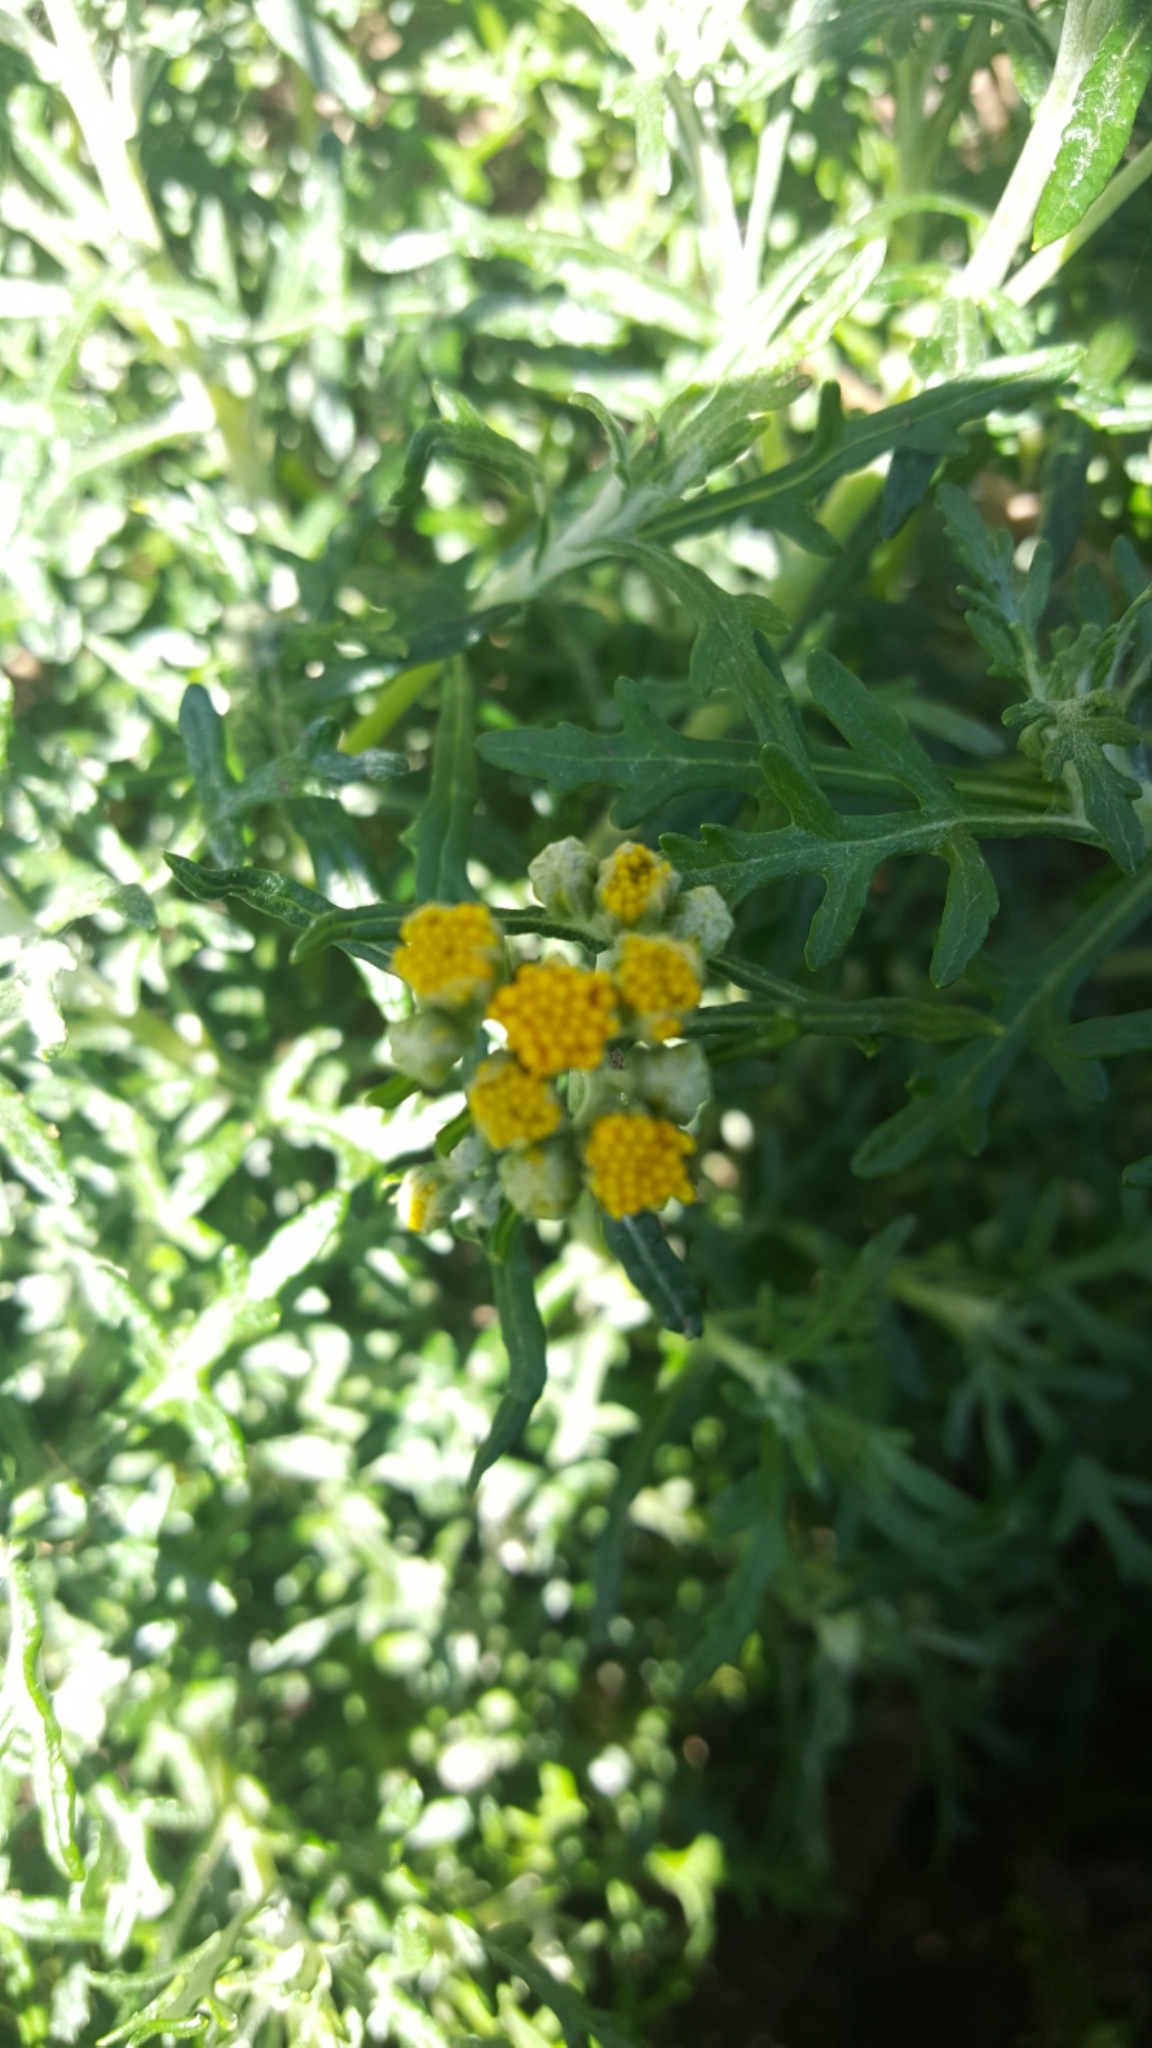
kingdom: Plantae
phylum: Tracheophyta
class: Magnoliopsida
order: Asterales
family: Asteraceae
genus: Eriophyllum
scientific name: Eriophyllum staechadifolium
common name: Lizardtail
